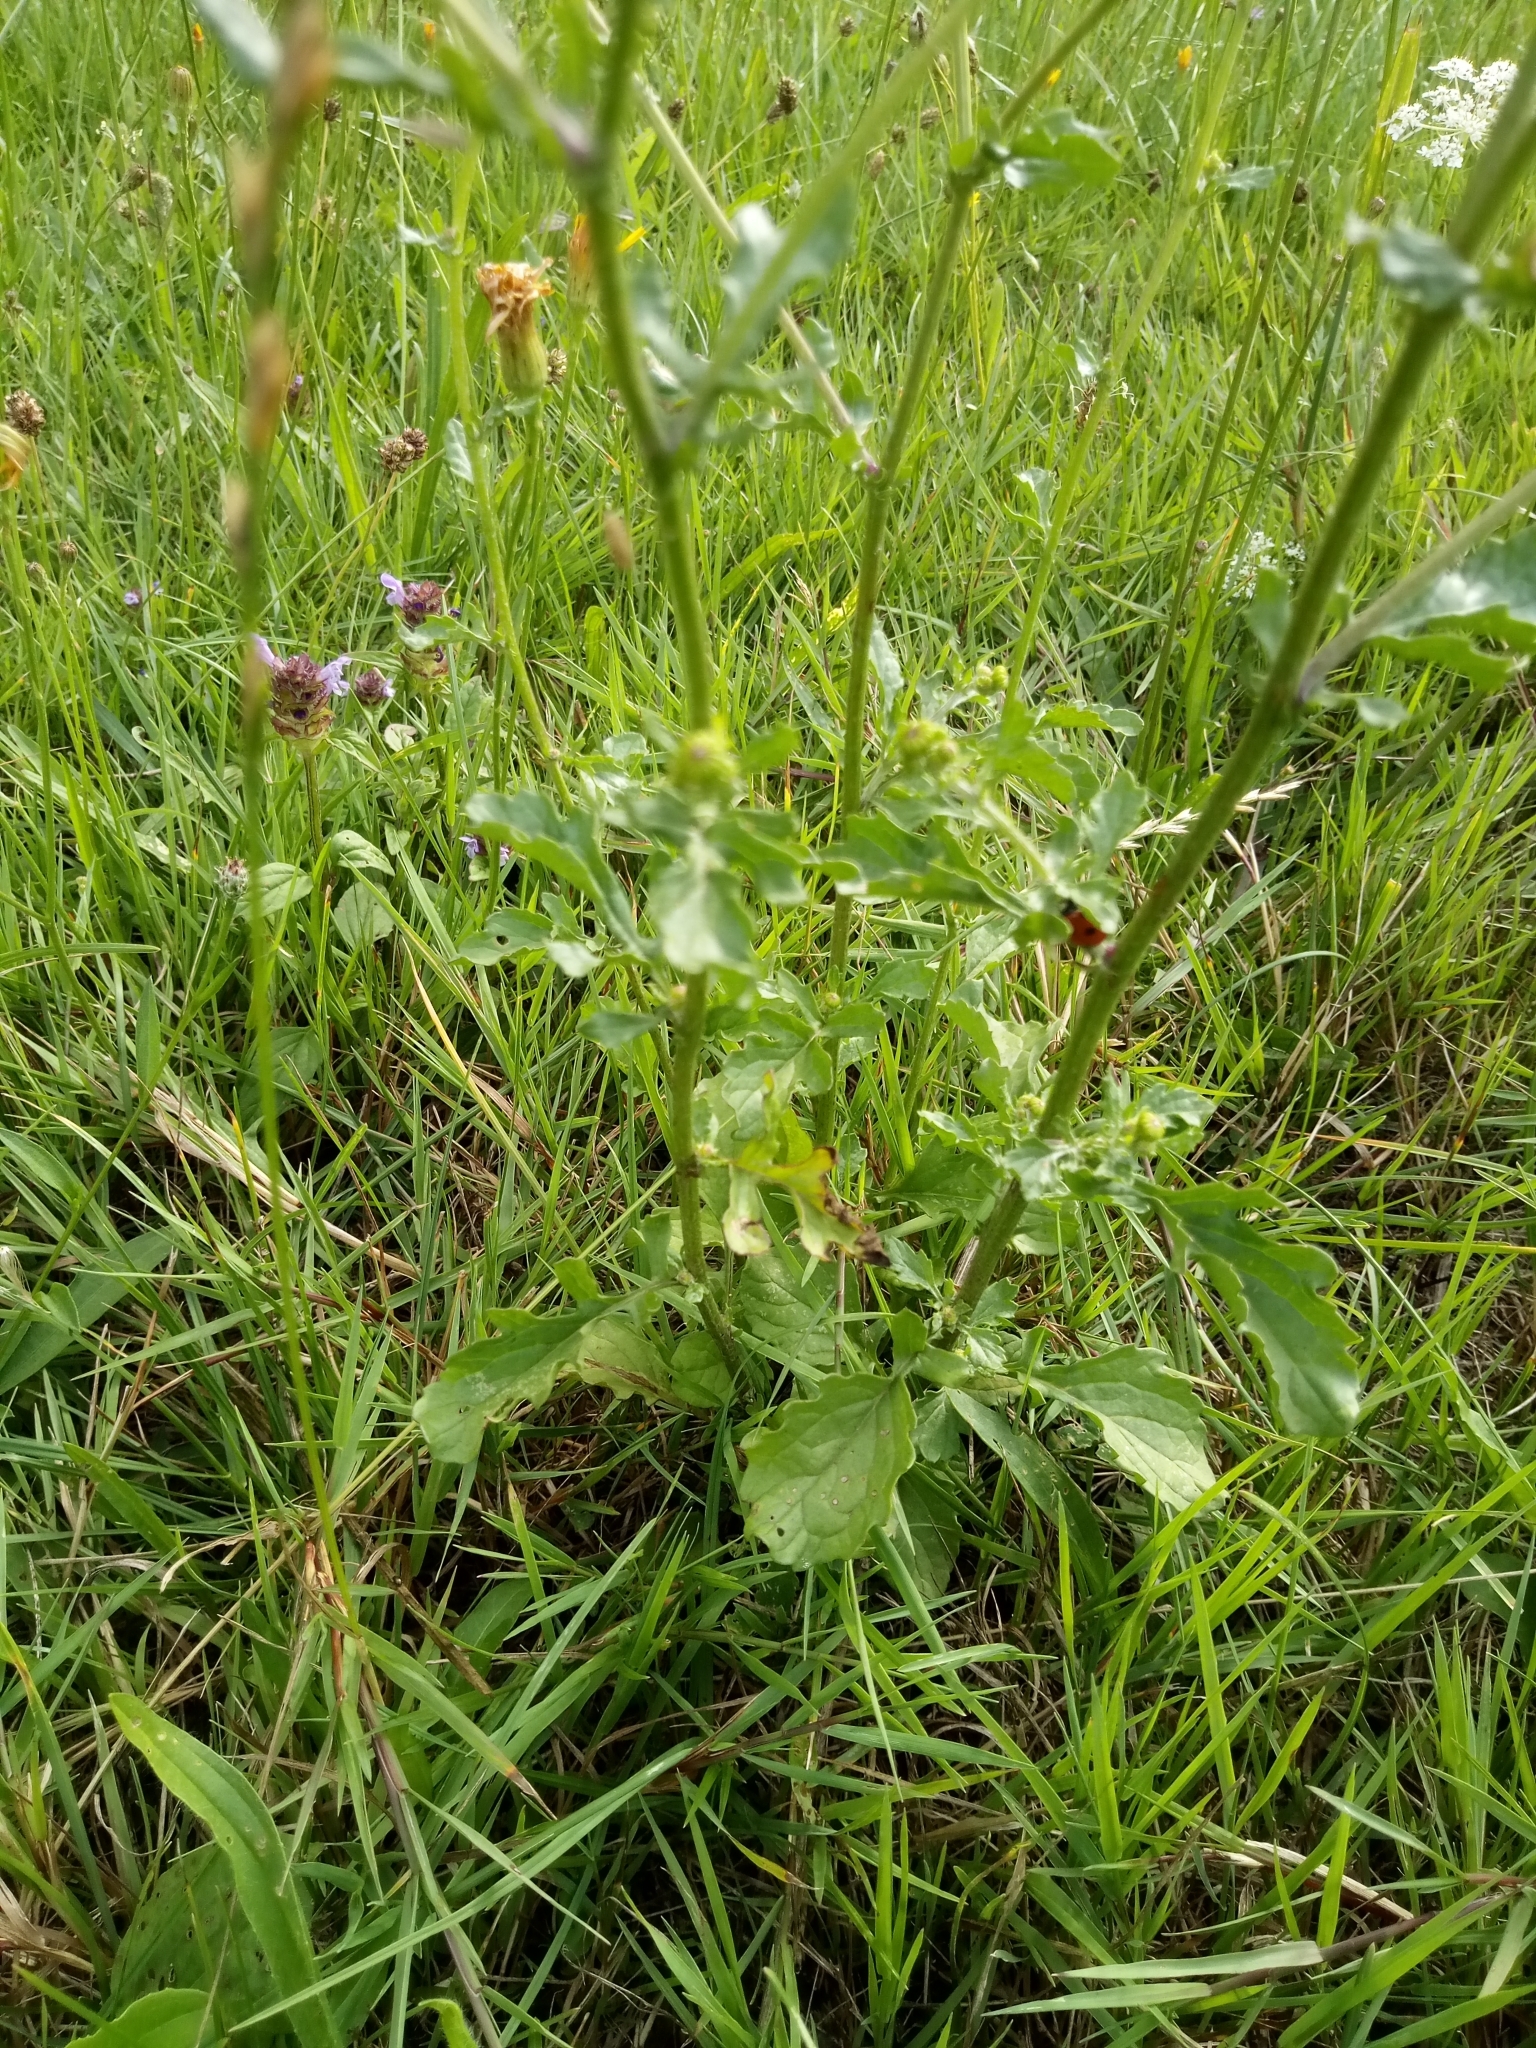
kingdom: Plantae
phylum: Tracheophyta
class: Magnoliopsida
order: Asterales
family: Asteraceae
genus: Jacobaea
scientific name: Jacobaea aquatica
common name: Water ragwort
